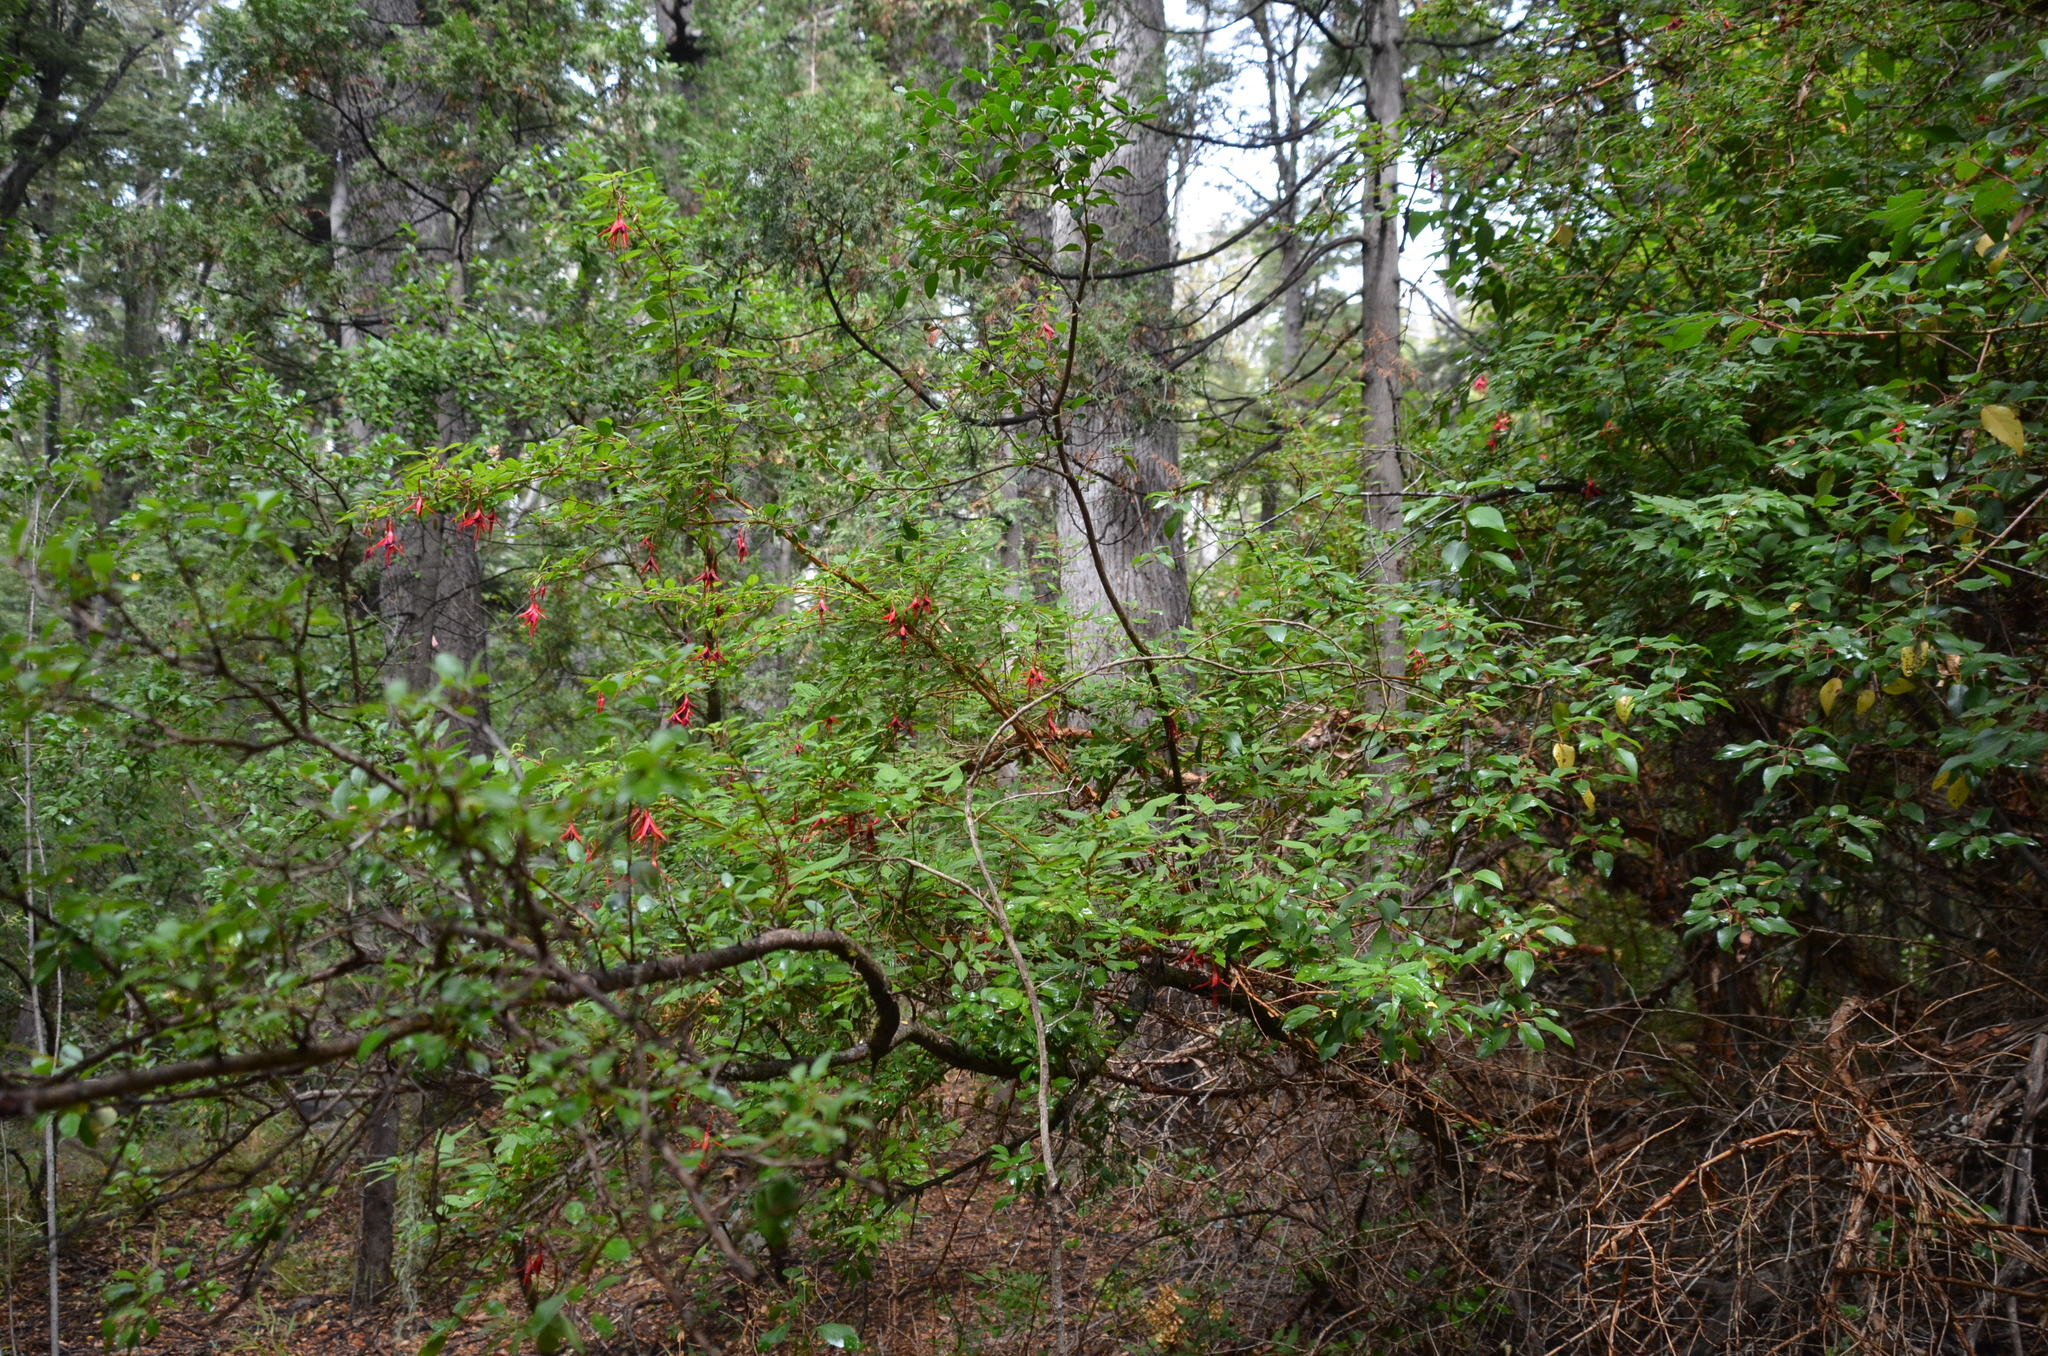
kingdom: Plantae
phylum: Tracheophyta
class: Magnoliopsida
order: Myrtales
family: Onagraceae
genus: Fuchsia
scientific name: Fuchsia magellanica
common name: Hardy fuchsia
